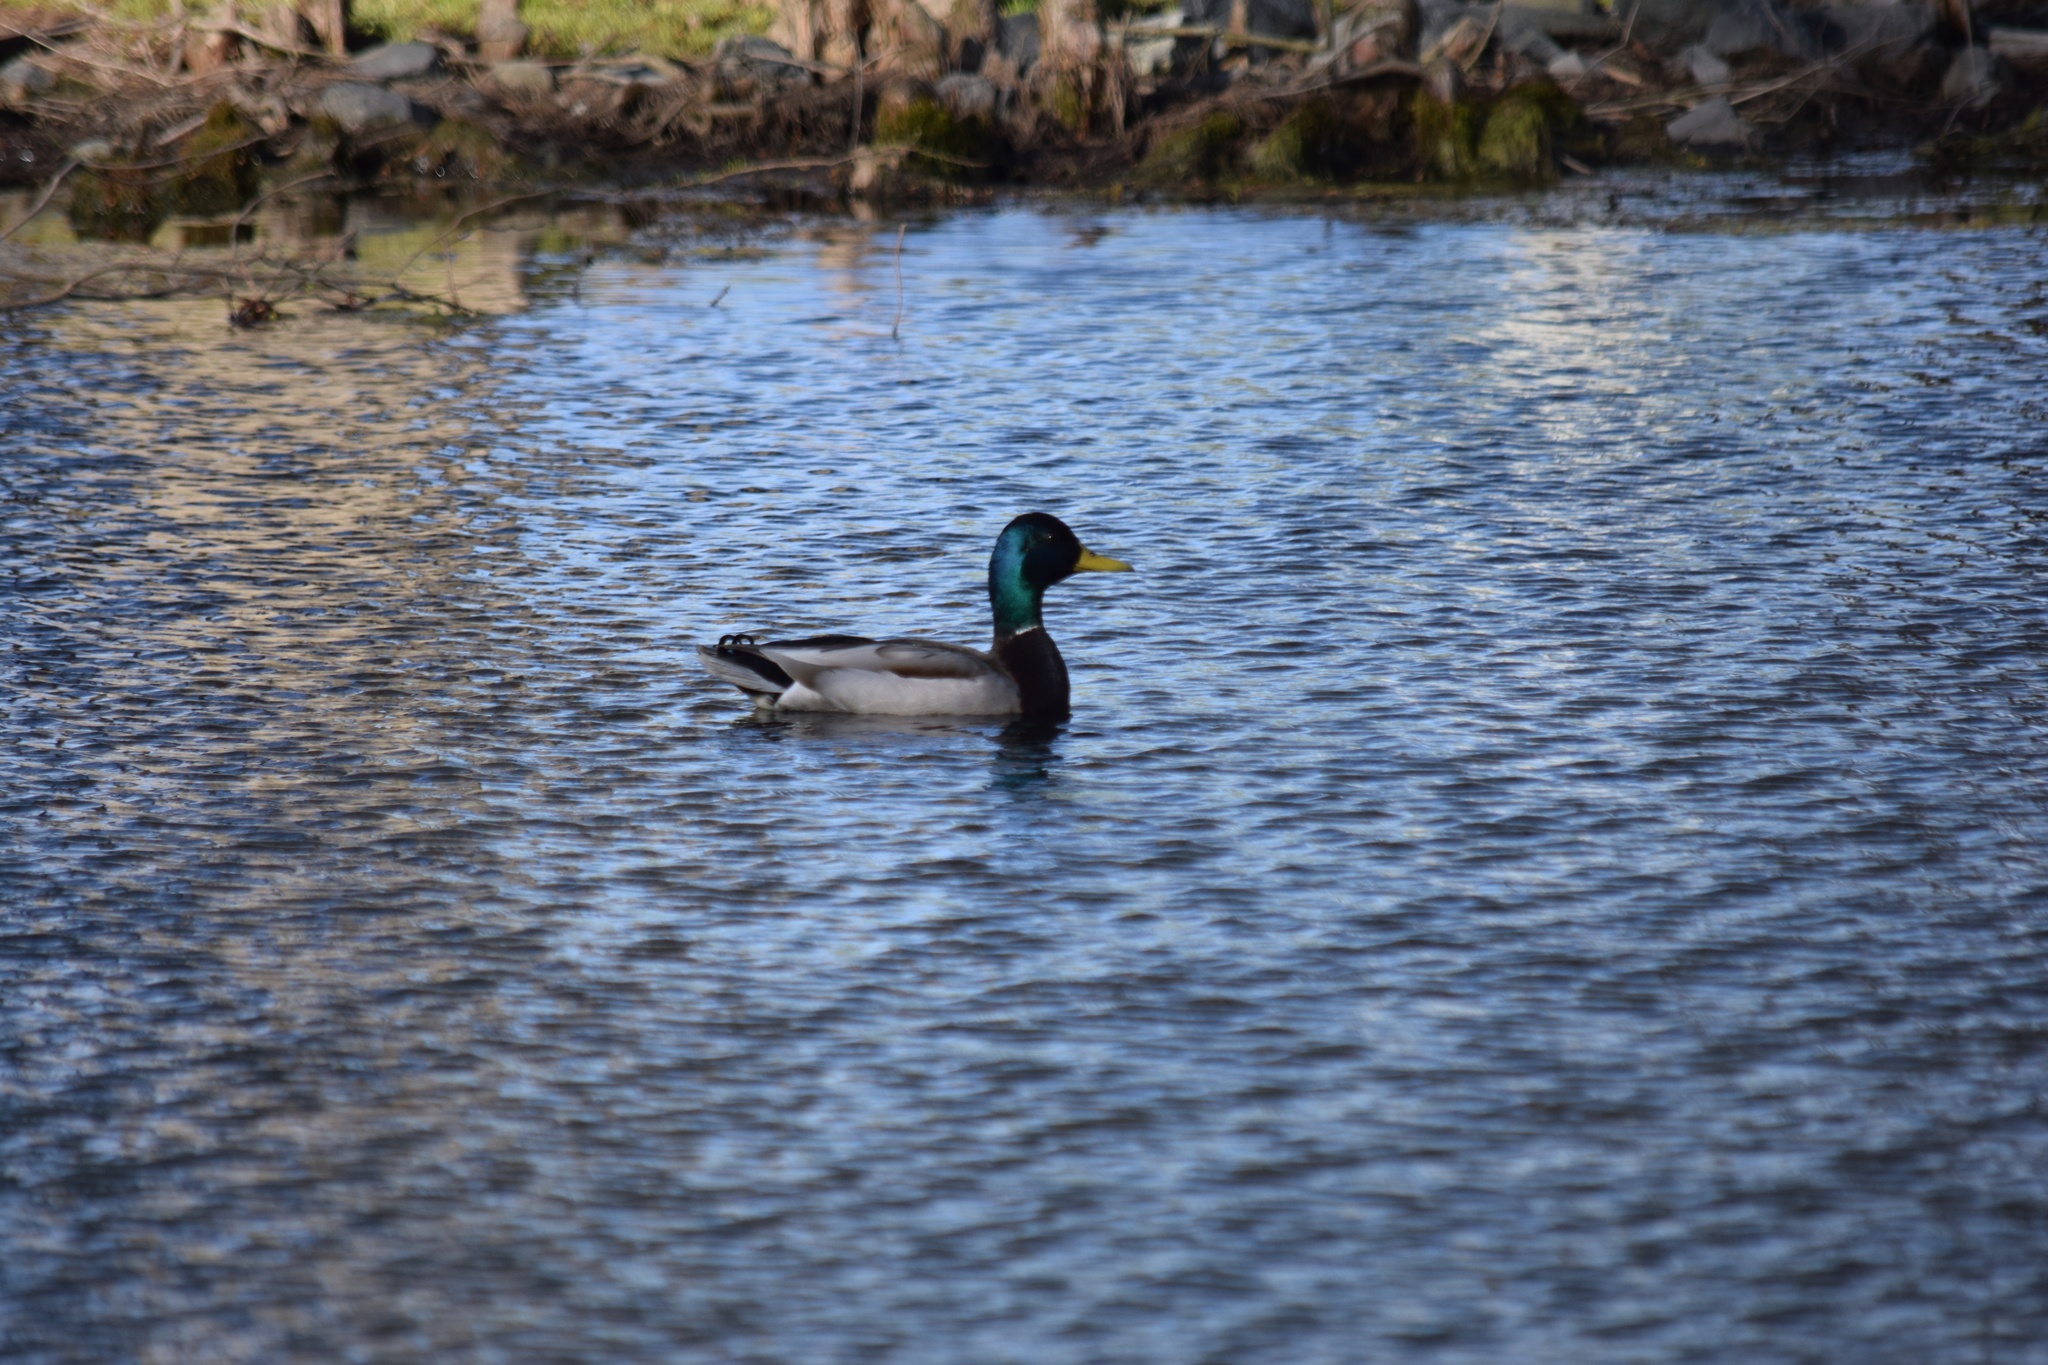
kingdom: Animalia
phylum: Chordata
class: Aves
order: Anseriformes
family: Anatidae
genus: Anas
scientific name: Anas platyrhynchos
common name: Mallard
